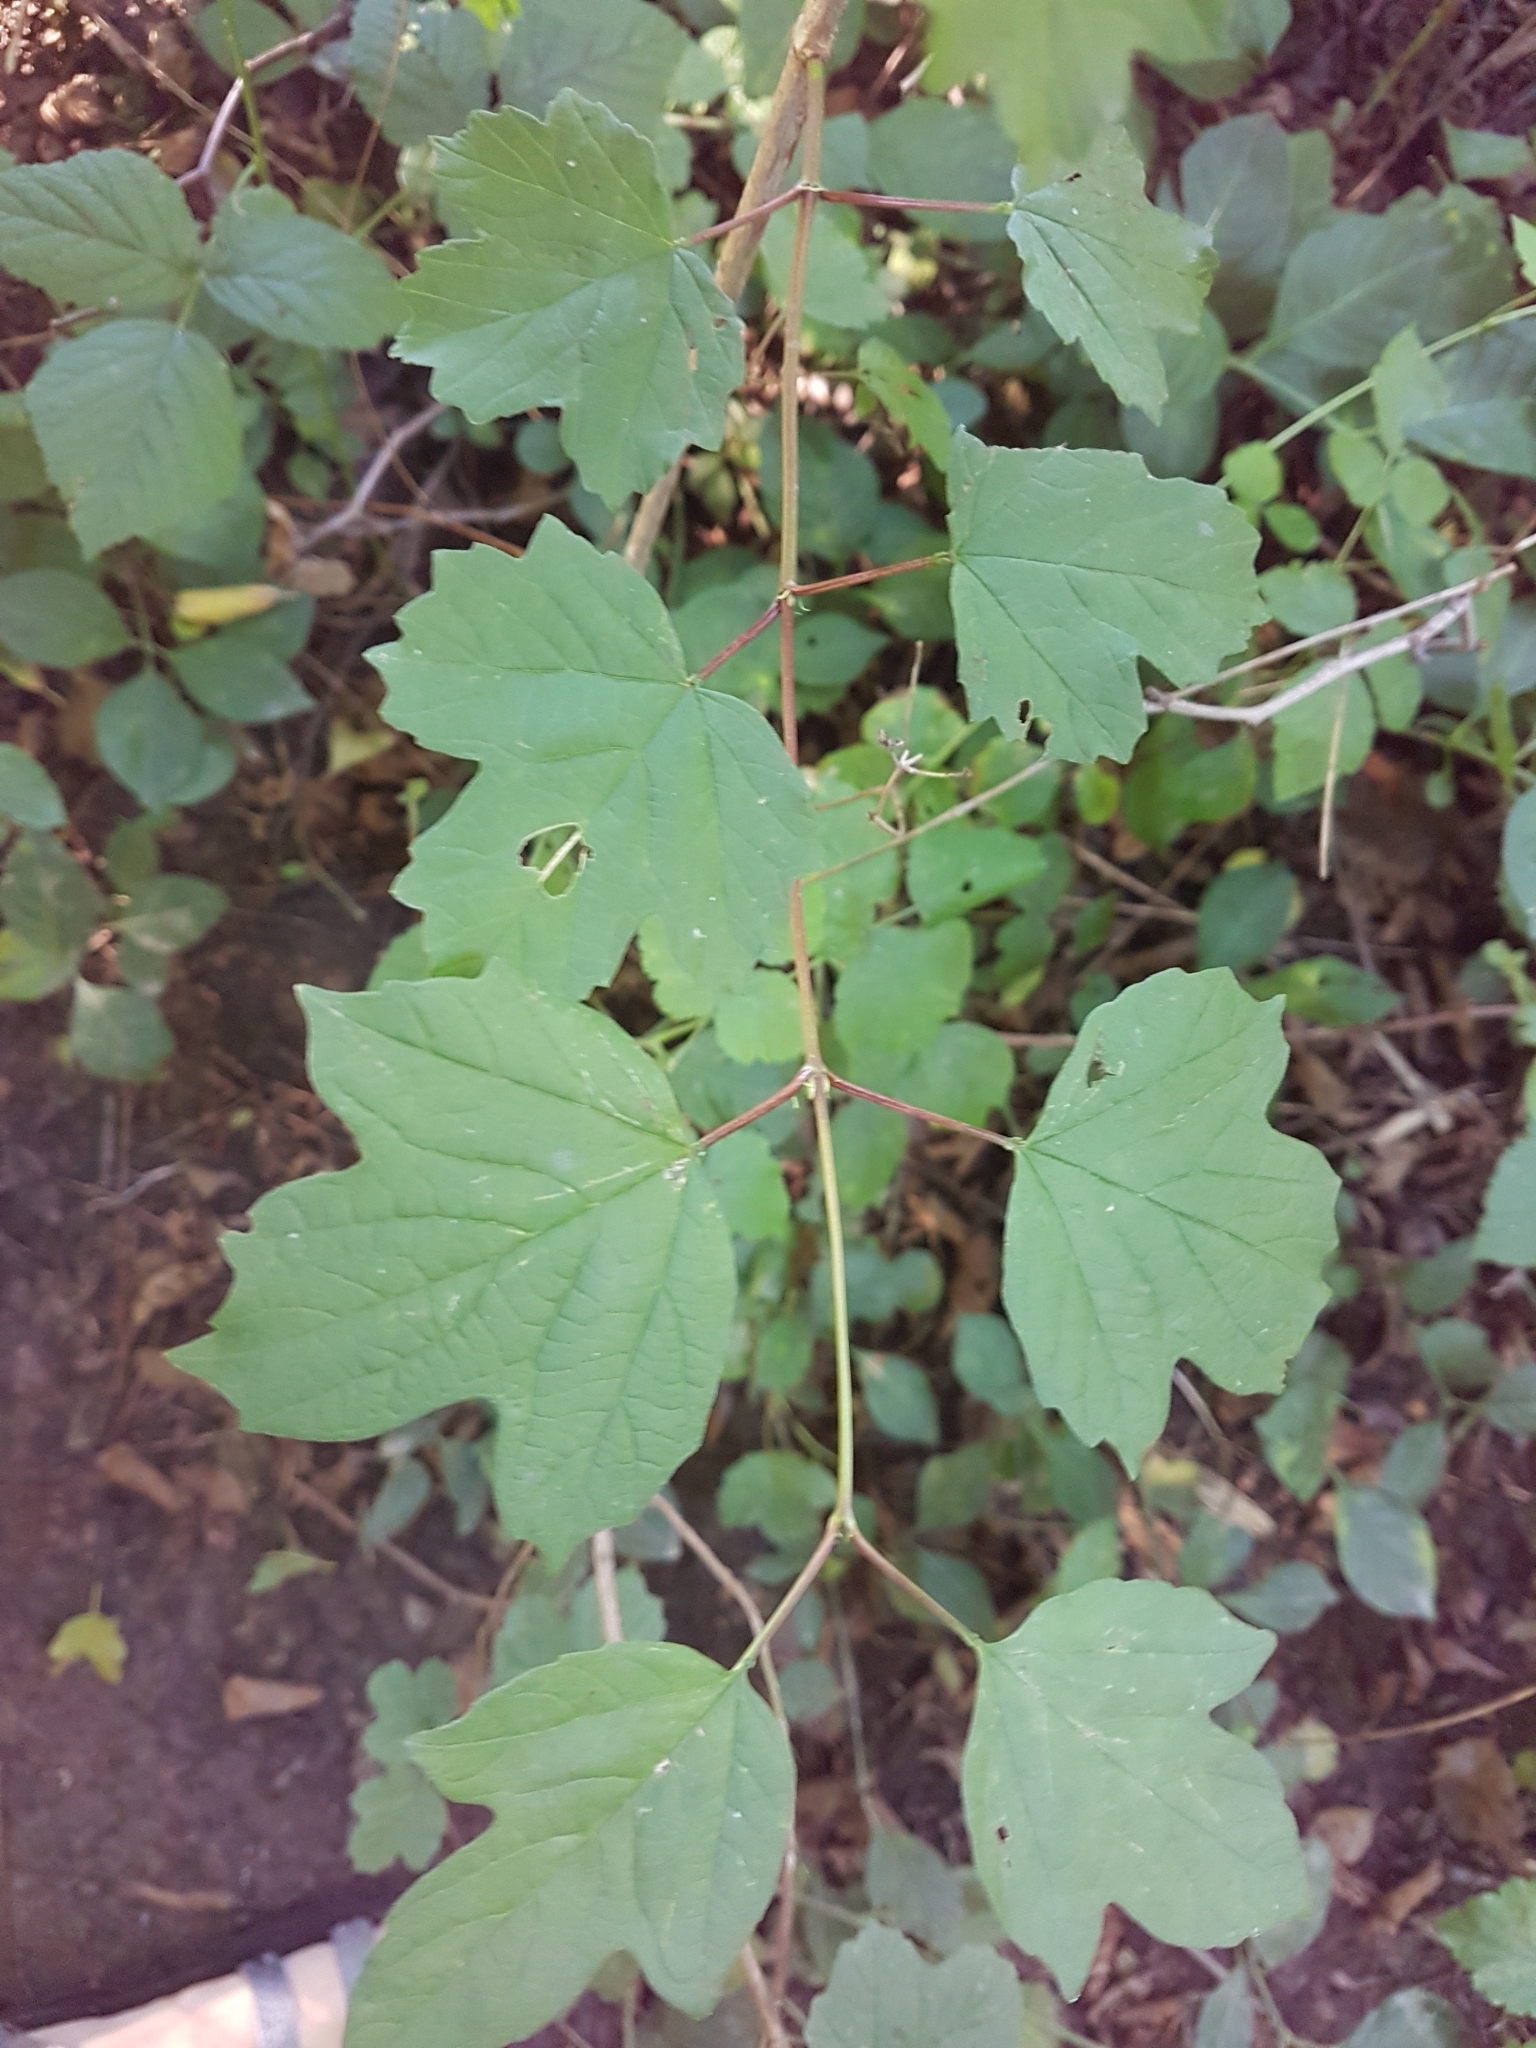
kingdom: Plantae
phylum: Tracheophyta
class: Magnoliopsida
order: Dipsacales
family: Viburnaceae
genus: Viburnum
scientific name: Viburnum opulus
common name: Guelder-rose
